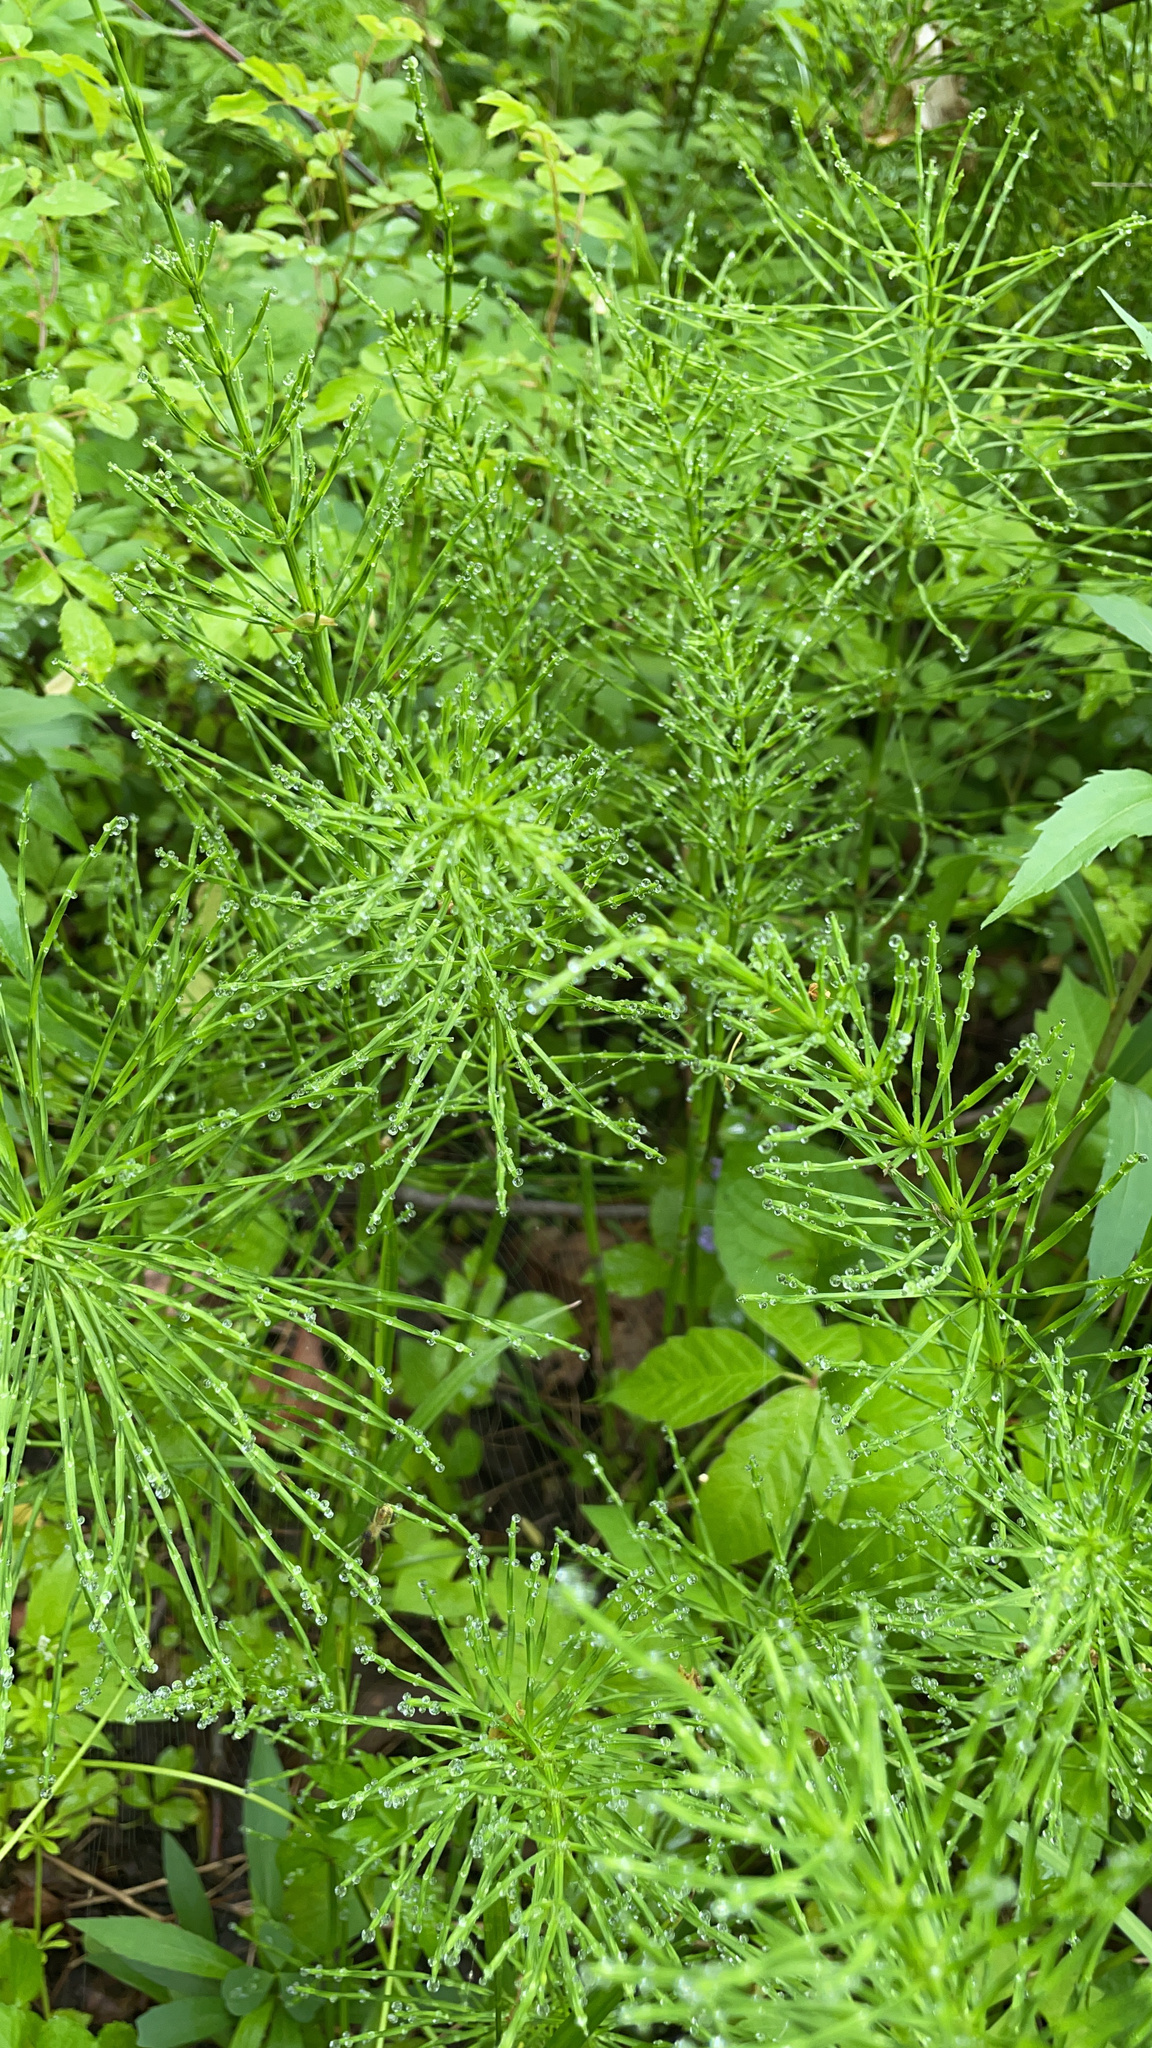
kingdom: Plantae
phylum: Tracheophyta
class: Polypodiopsida
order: Equisetales
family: Equisetaceae
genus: Equisetum
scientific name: Equisetum arvense
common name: Field horsetail
